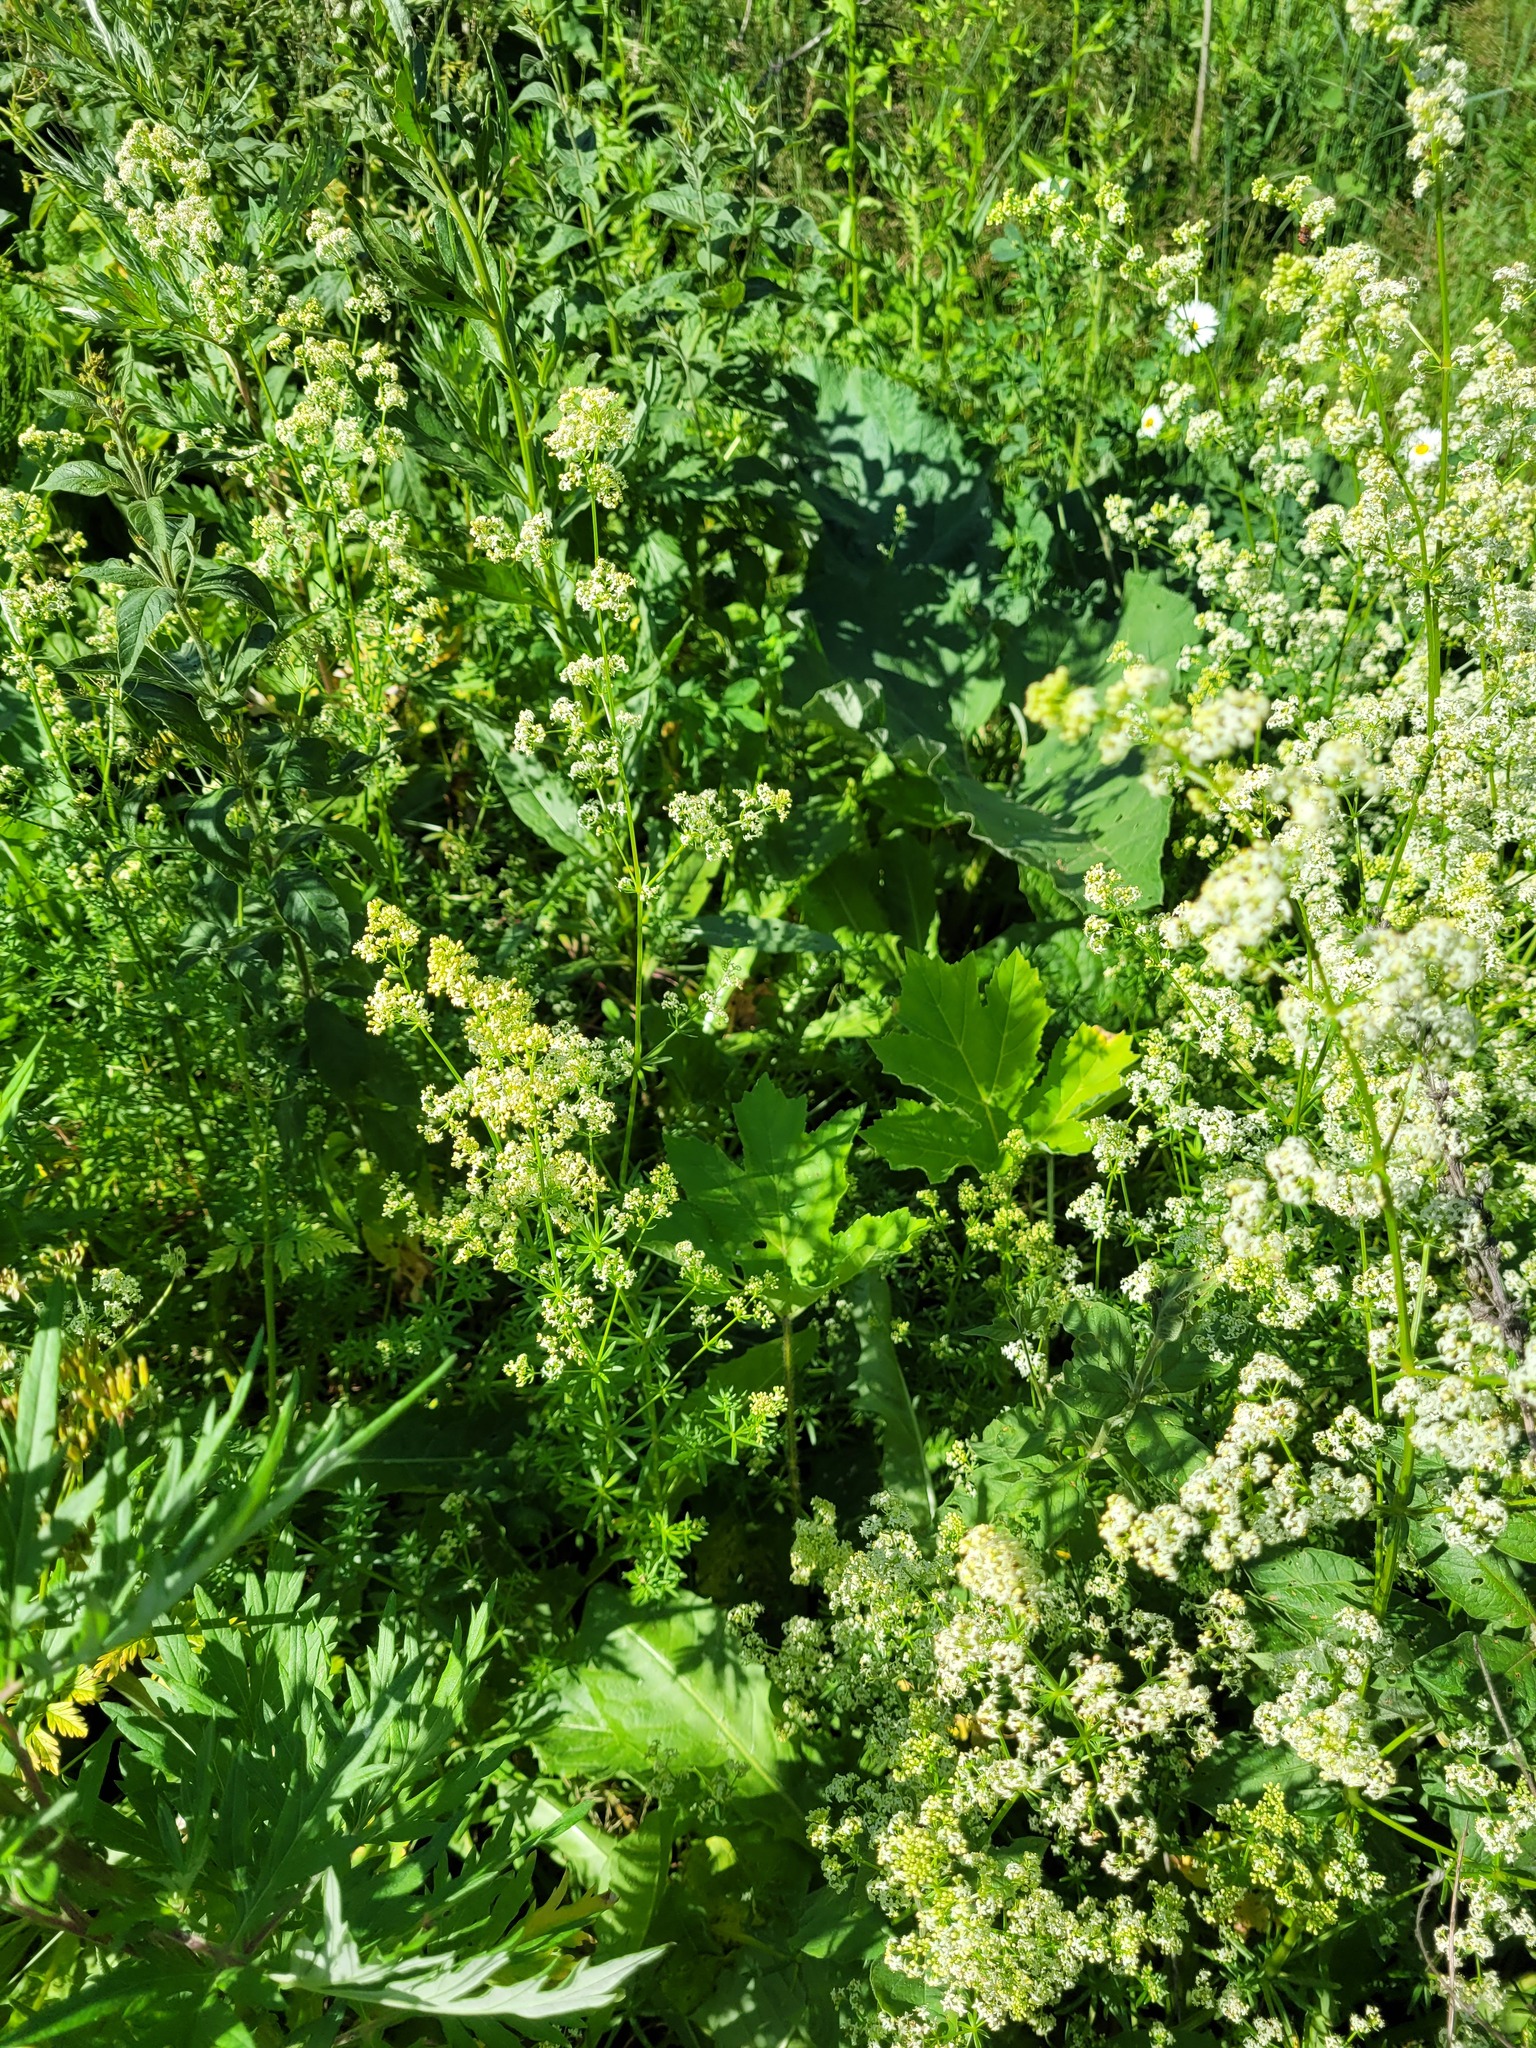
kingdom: Plantae
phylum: Tracheophyta
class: Magnoliopsida
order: Asterales
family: Asteraceae
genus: Cirsium
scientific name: Cirsium arvense
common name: Creeping thistle
